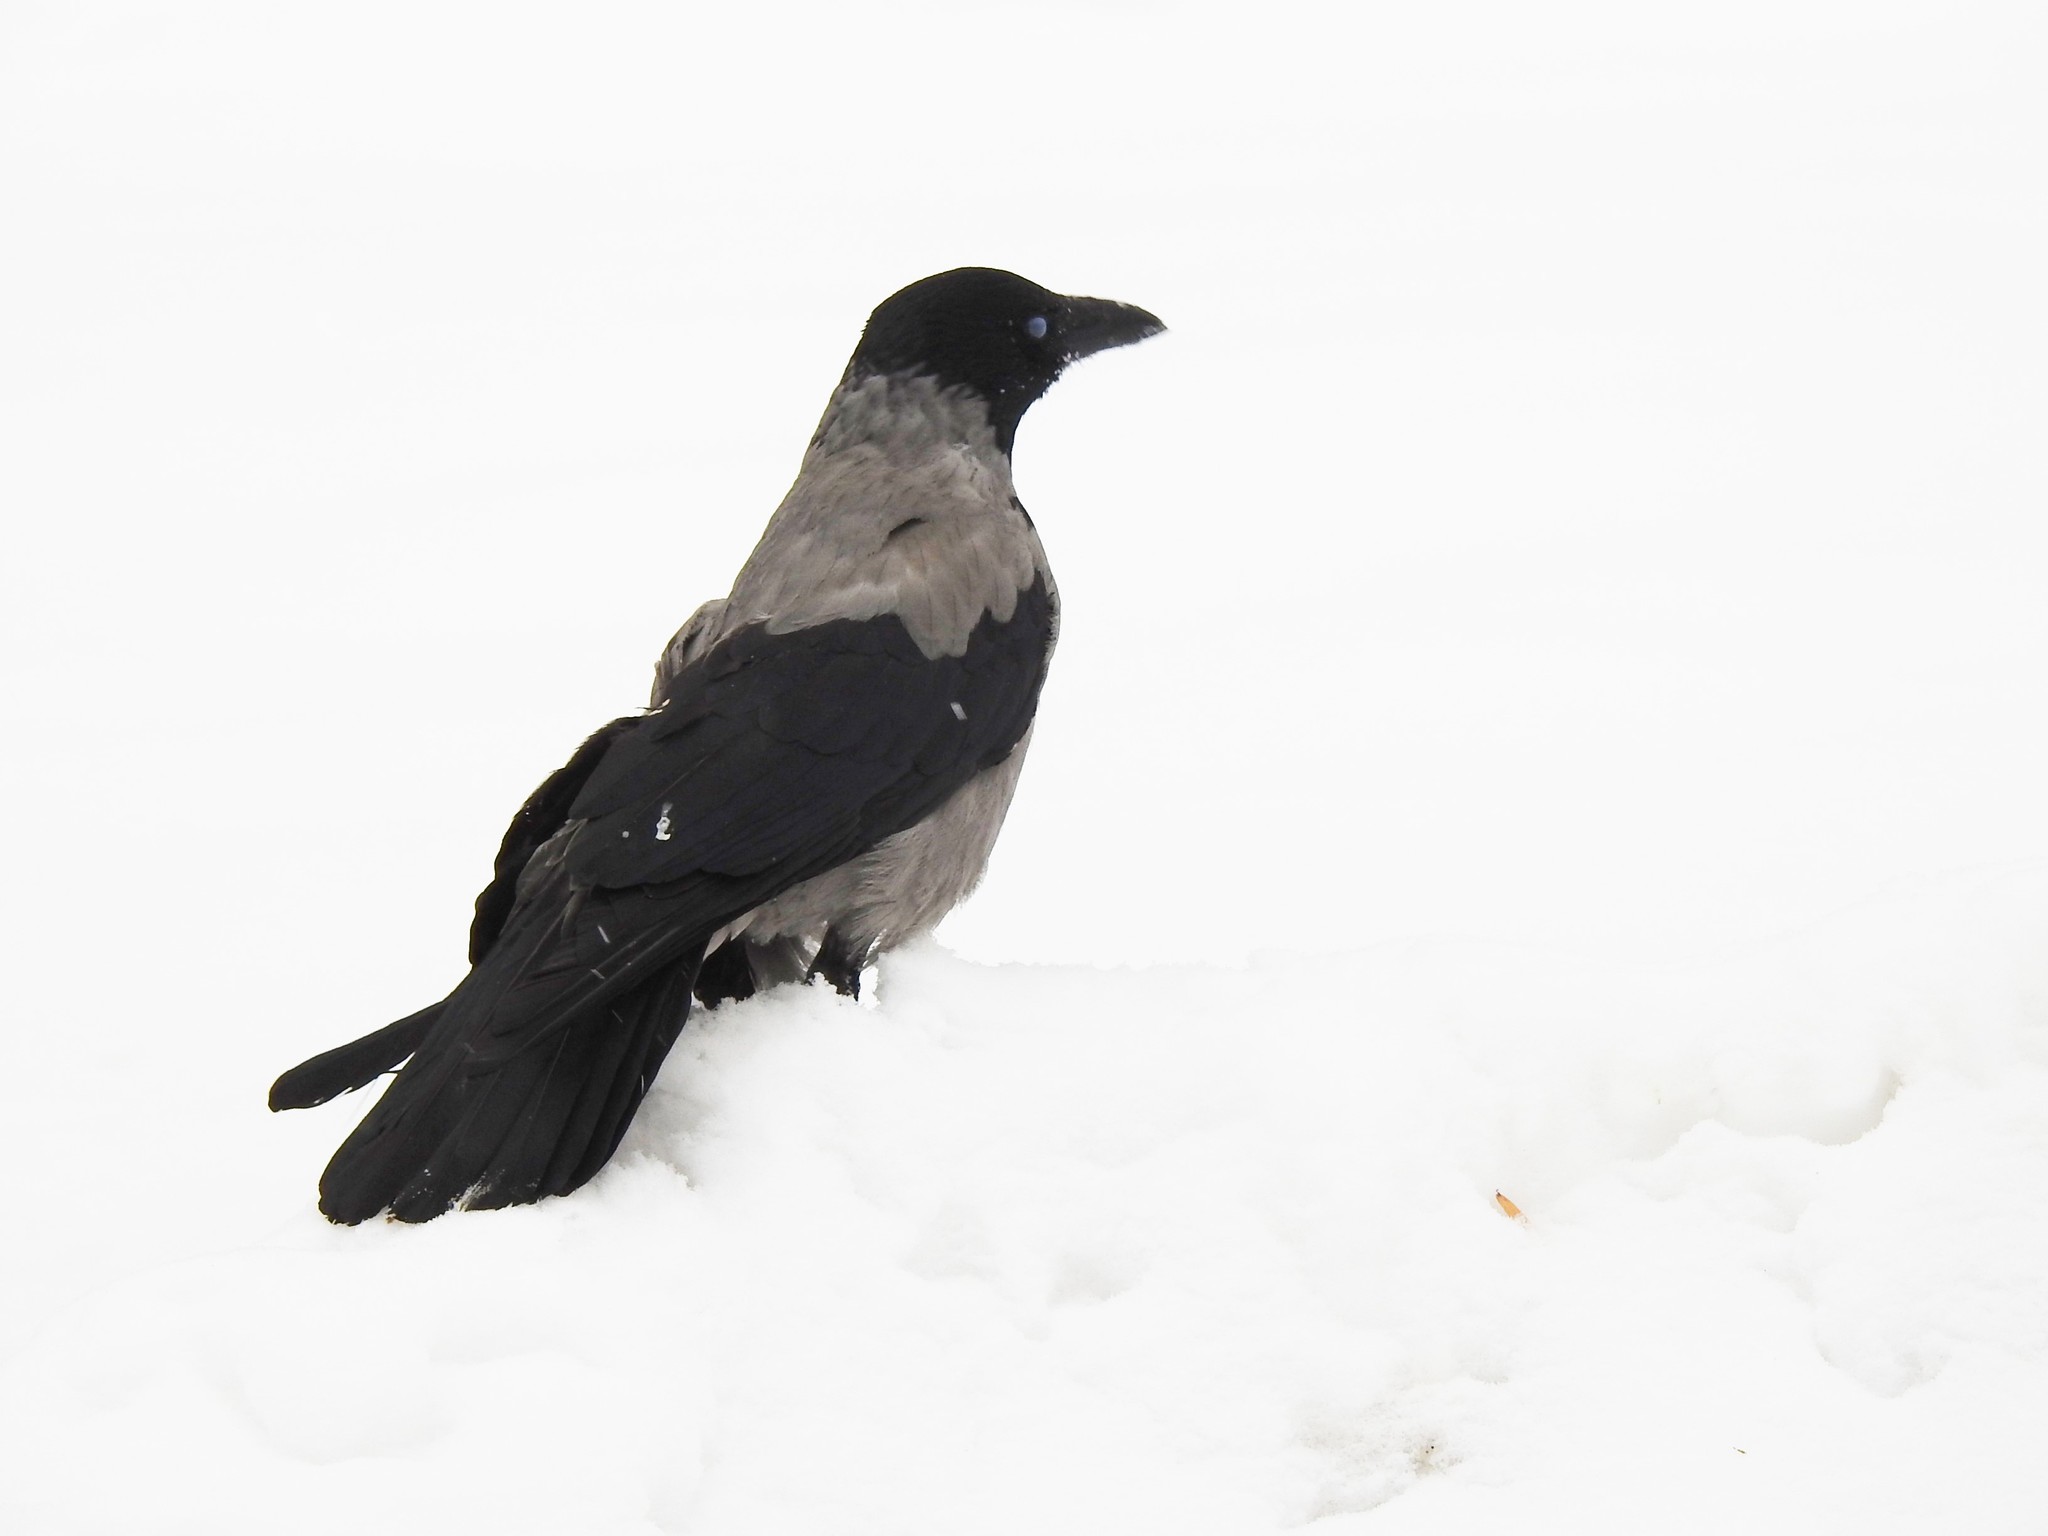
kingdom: Animalia
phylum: Chordata
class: Aves
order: Passeriformes
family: Corvidae
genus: Corvus
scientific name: Corvus cornix
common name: Hooded crow
